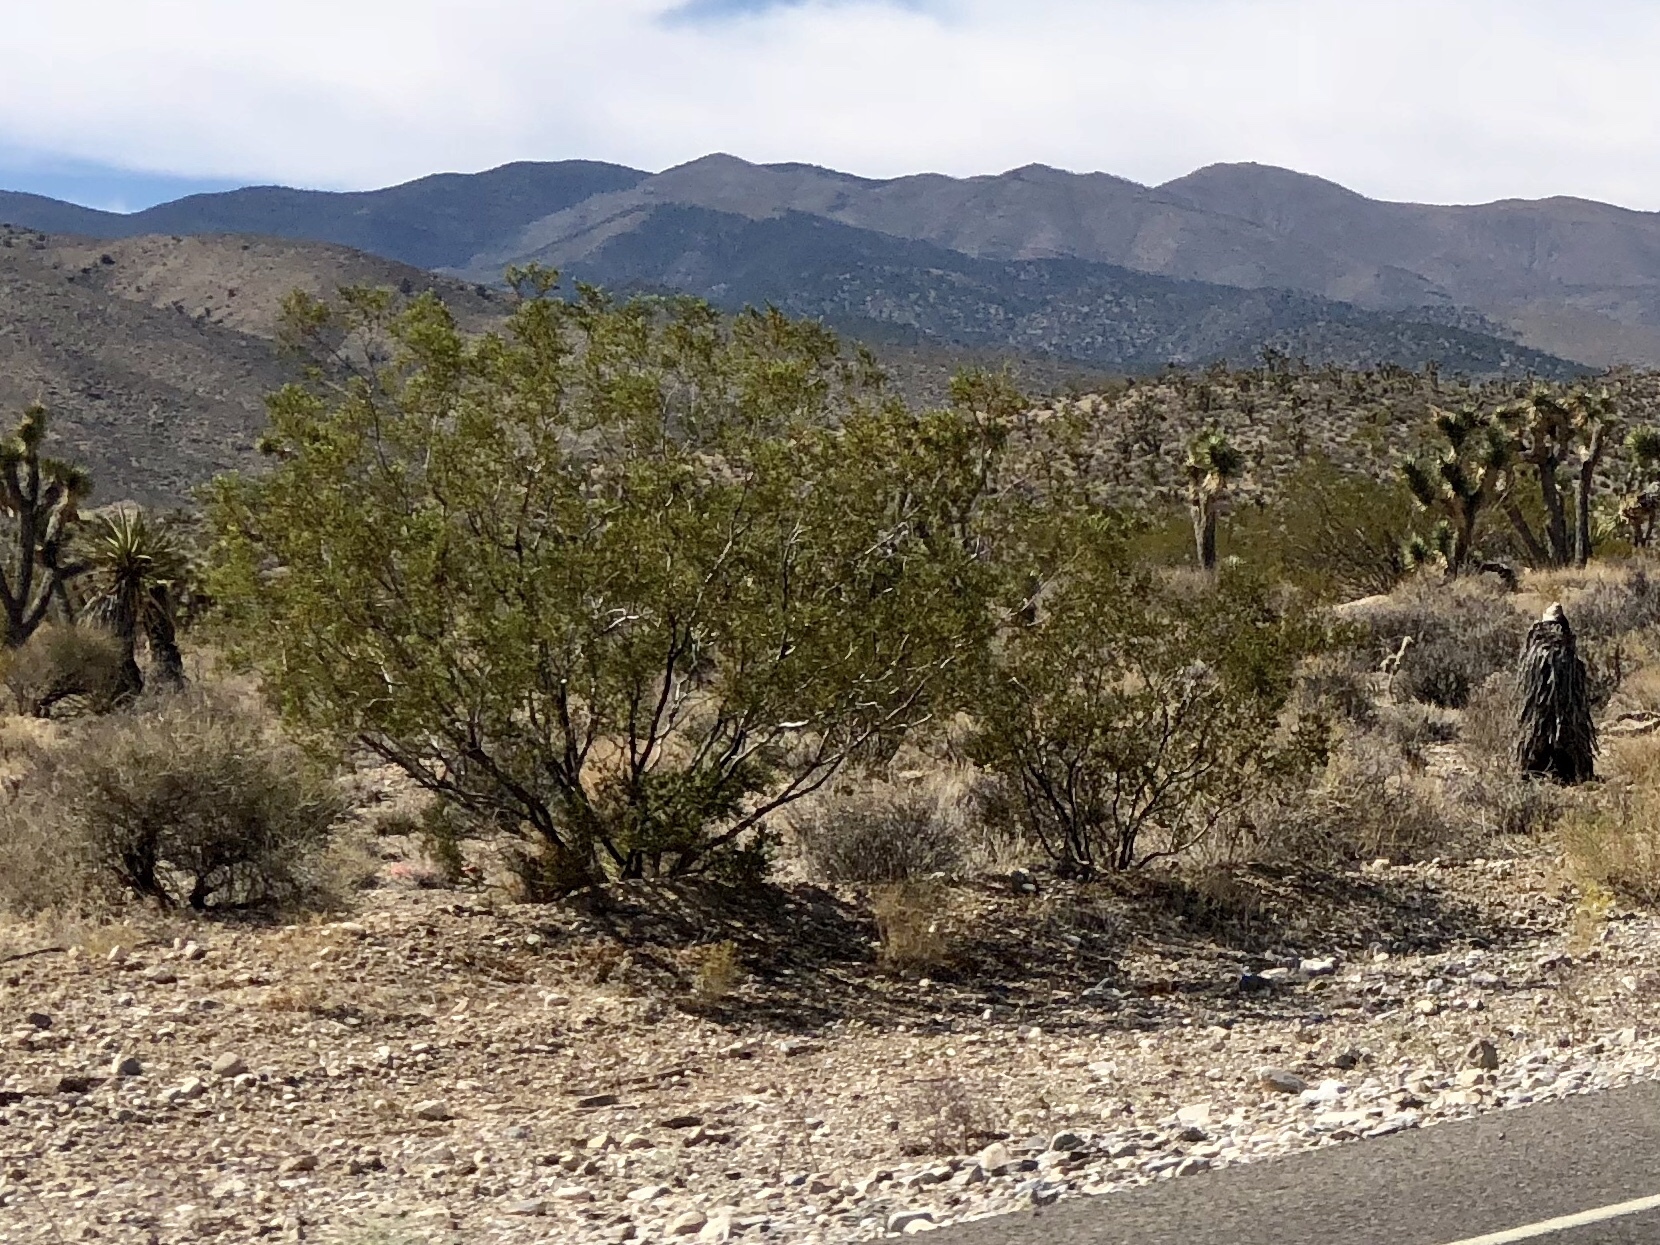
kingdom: Plantae
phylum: Tracheophyta
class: Magnoliopsida
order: Zygophyllales
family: Zygophyllaceae
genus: Larrea
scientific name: Larrea tridentata
